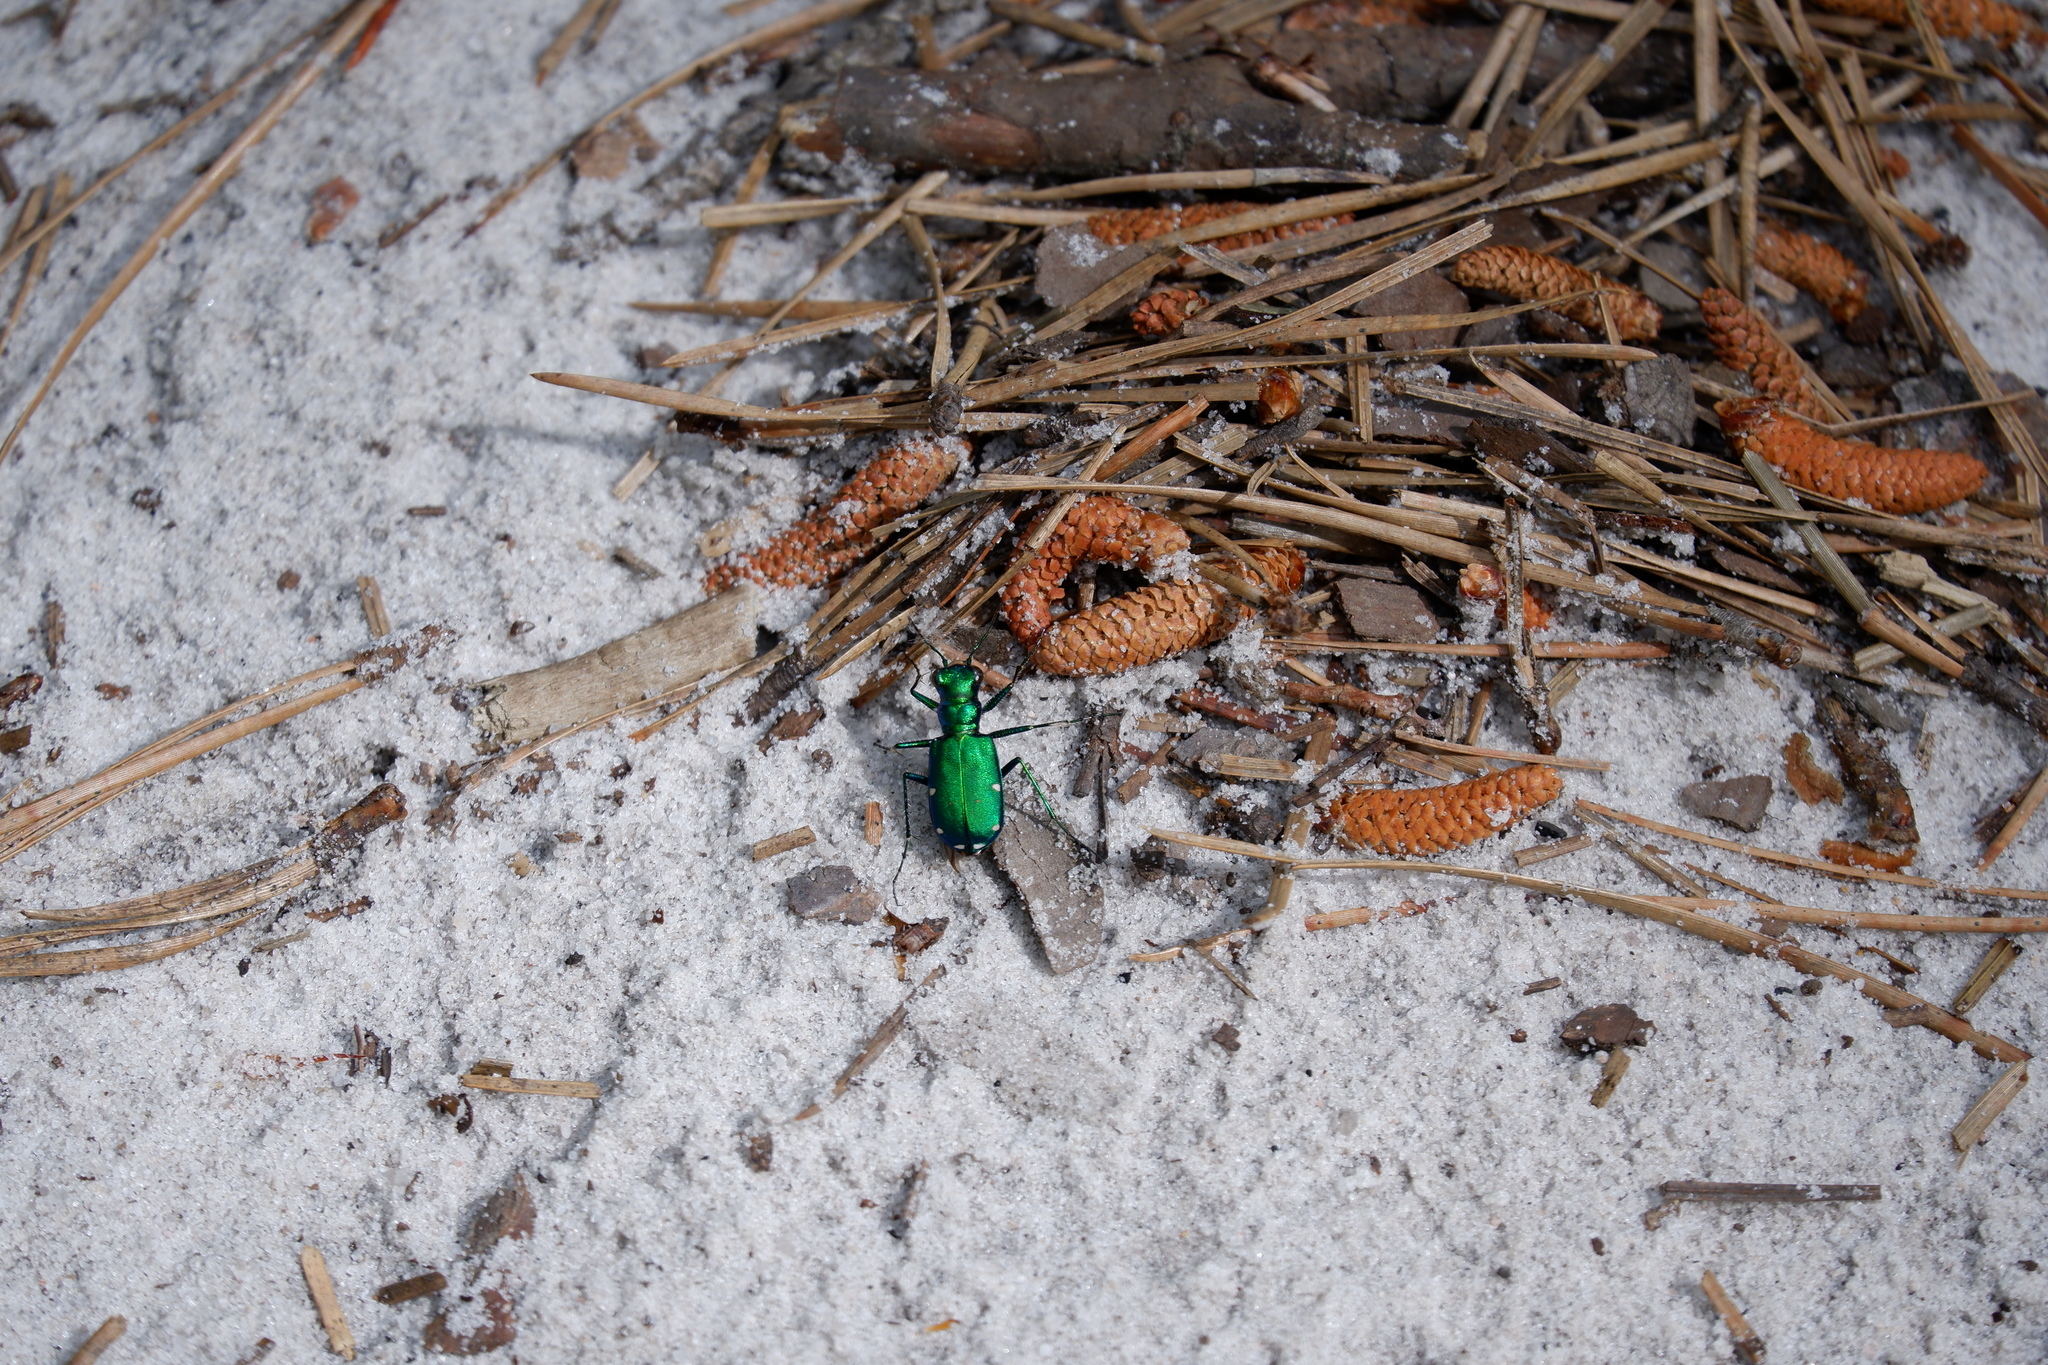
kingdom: Animalia
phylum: Arthropoda
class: Insecta
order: Coleoptera
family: Carabidae
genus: Cicindela
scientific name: Cicindela sexguttata
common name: Six-spotted tiger beetle
